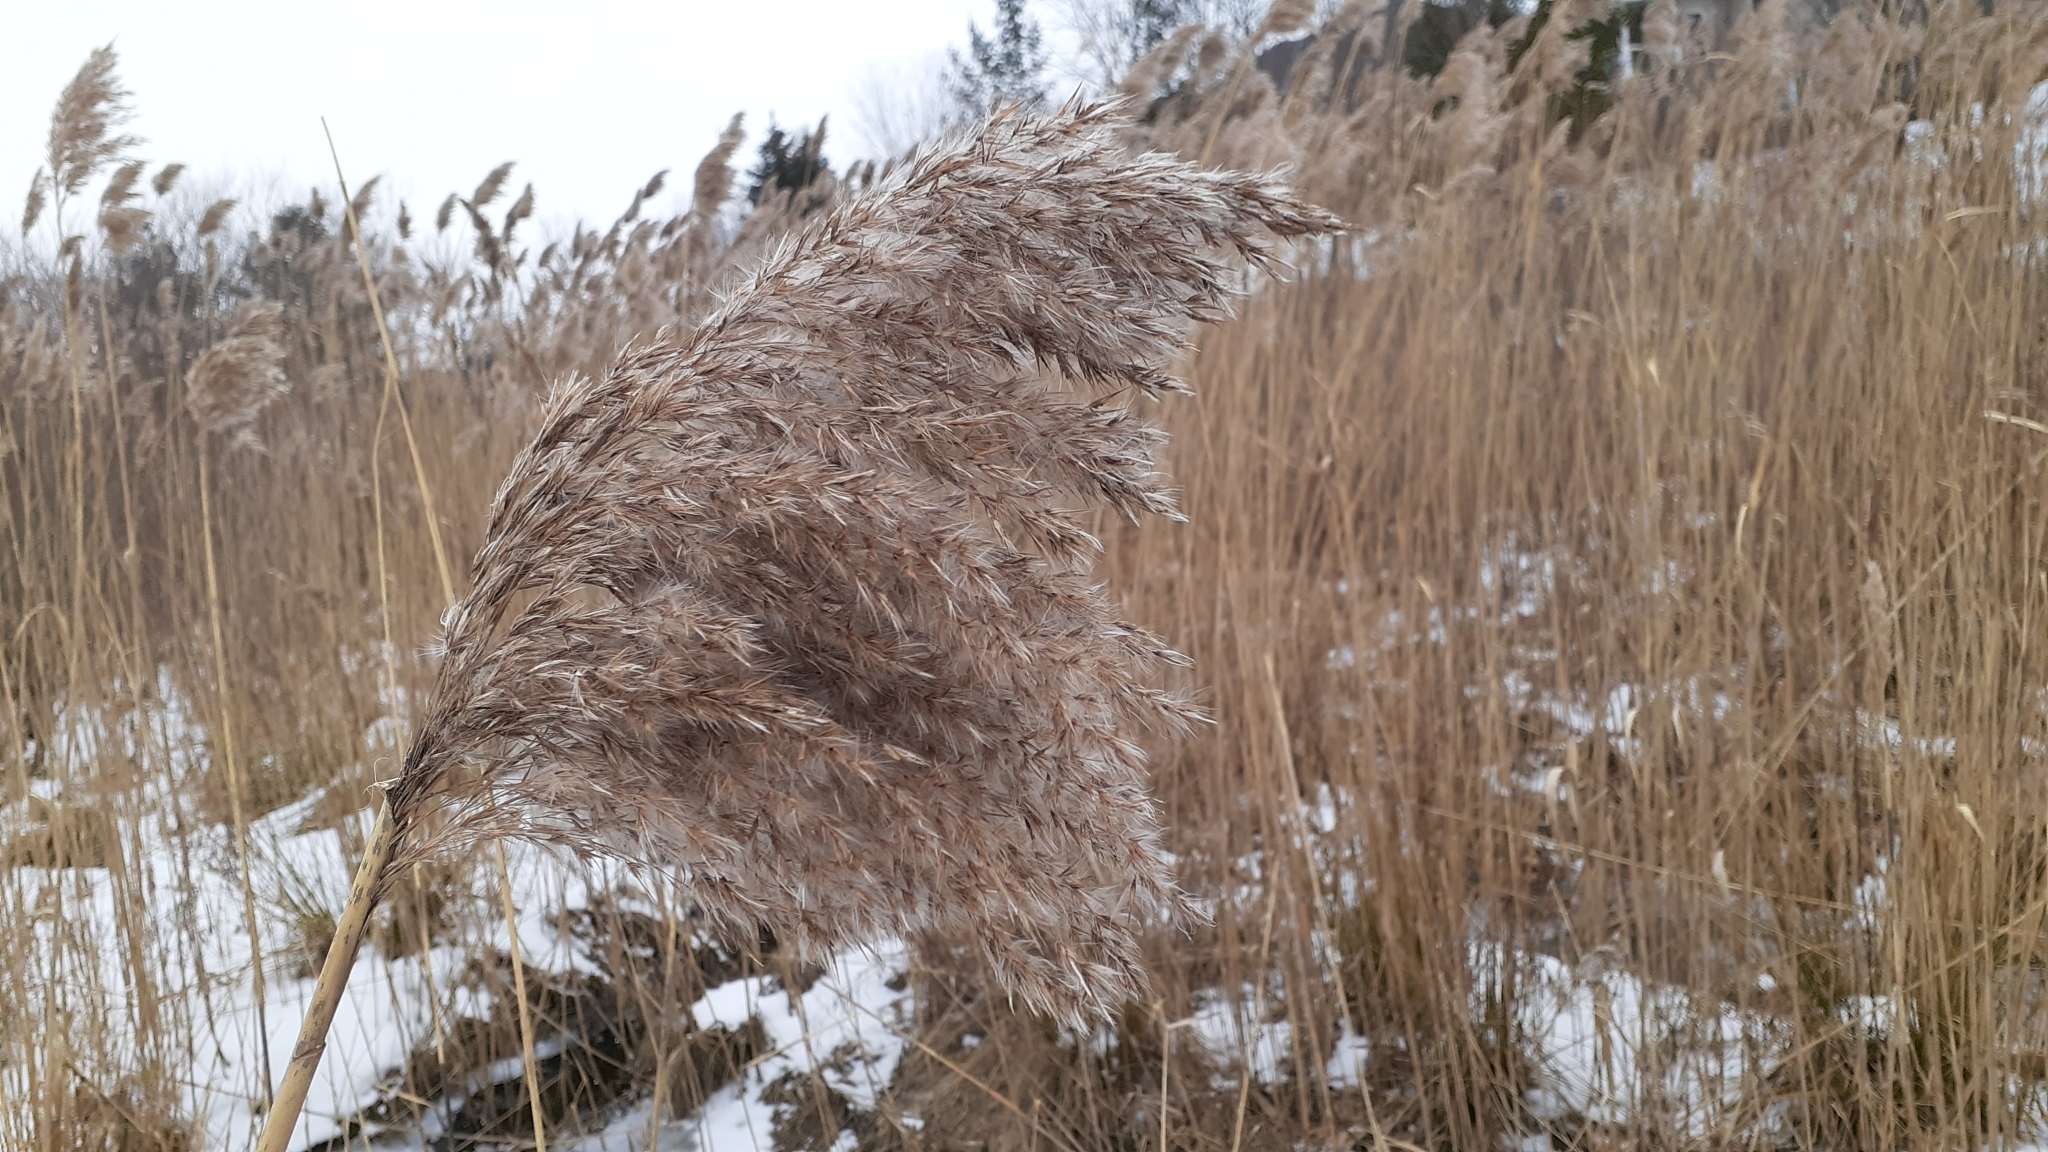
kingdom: Plantae
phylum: Tracheophyta
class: Liliopsida
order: Poales
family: Poaceae
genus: Phragmites
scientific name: Phragmites australis
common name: Common reed
